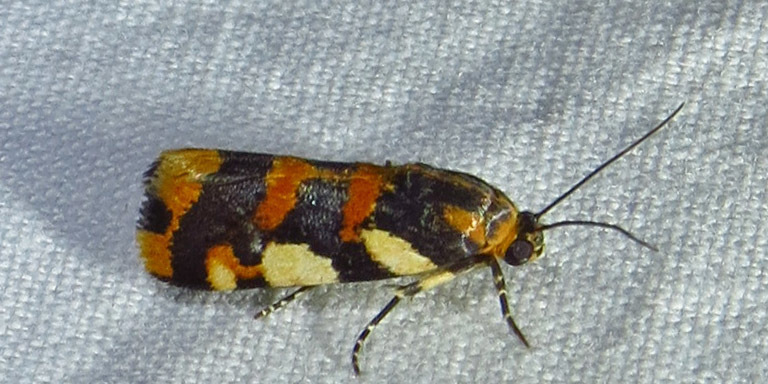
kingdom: Animalia
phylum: Arthropoda
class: Insecta
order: Lepidoptera
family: Noctuidae
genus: Acontia
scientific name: Acontia dama
